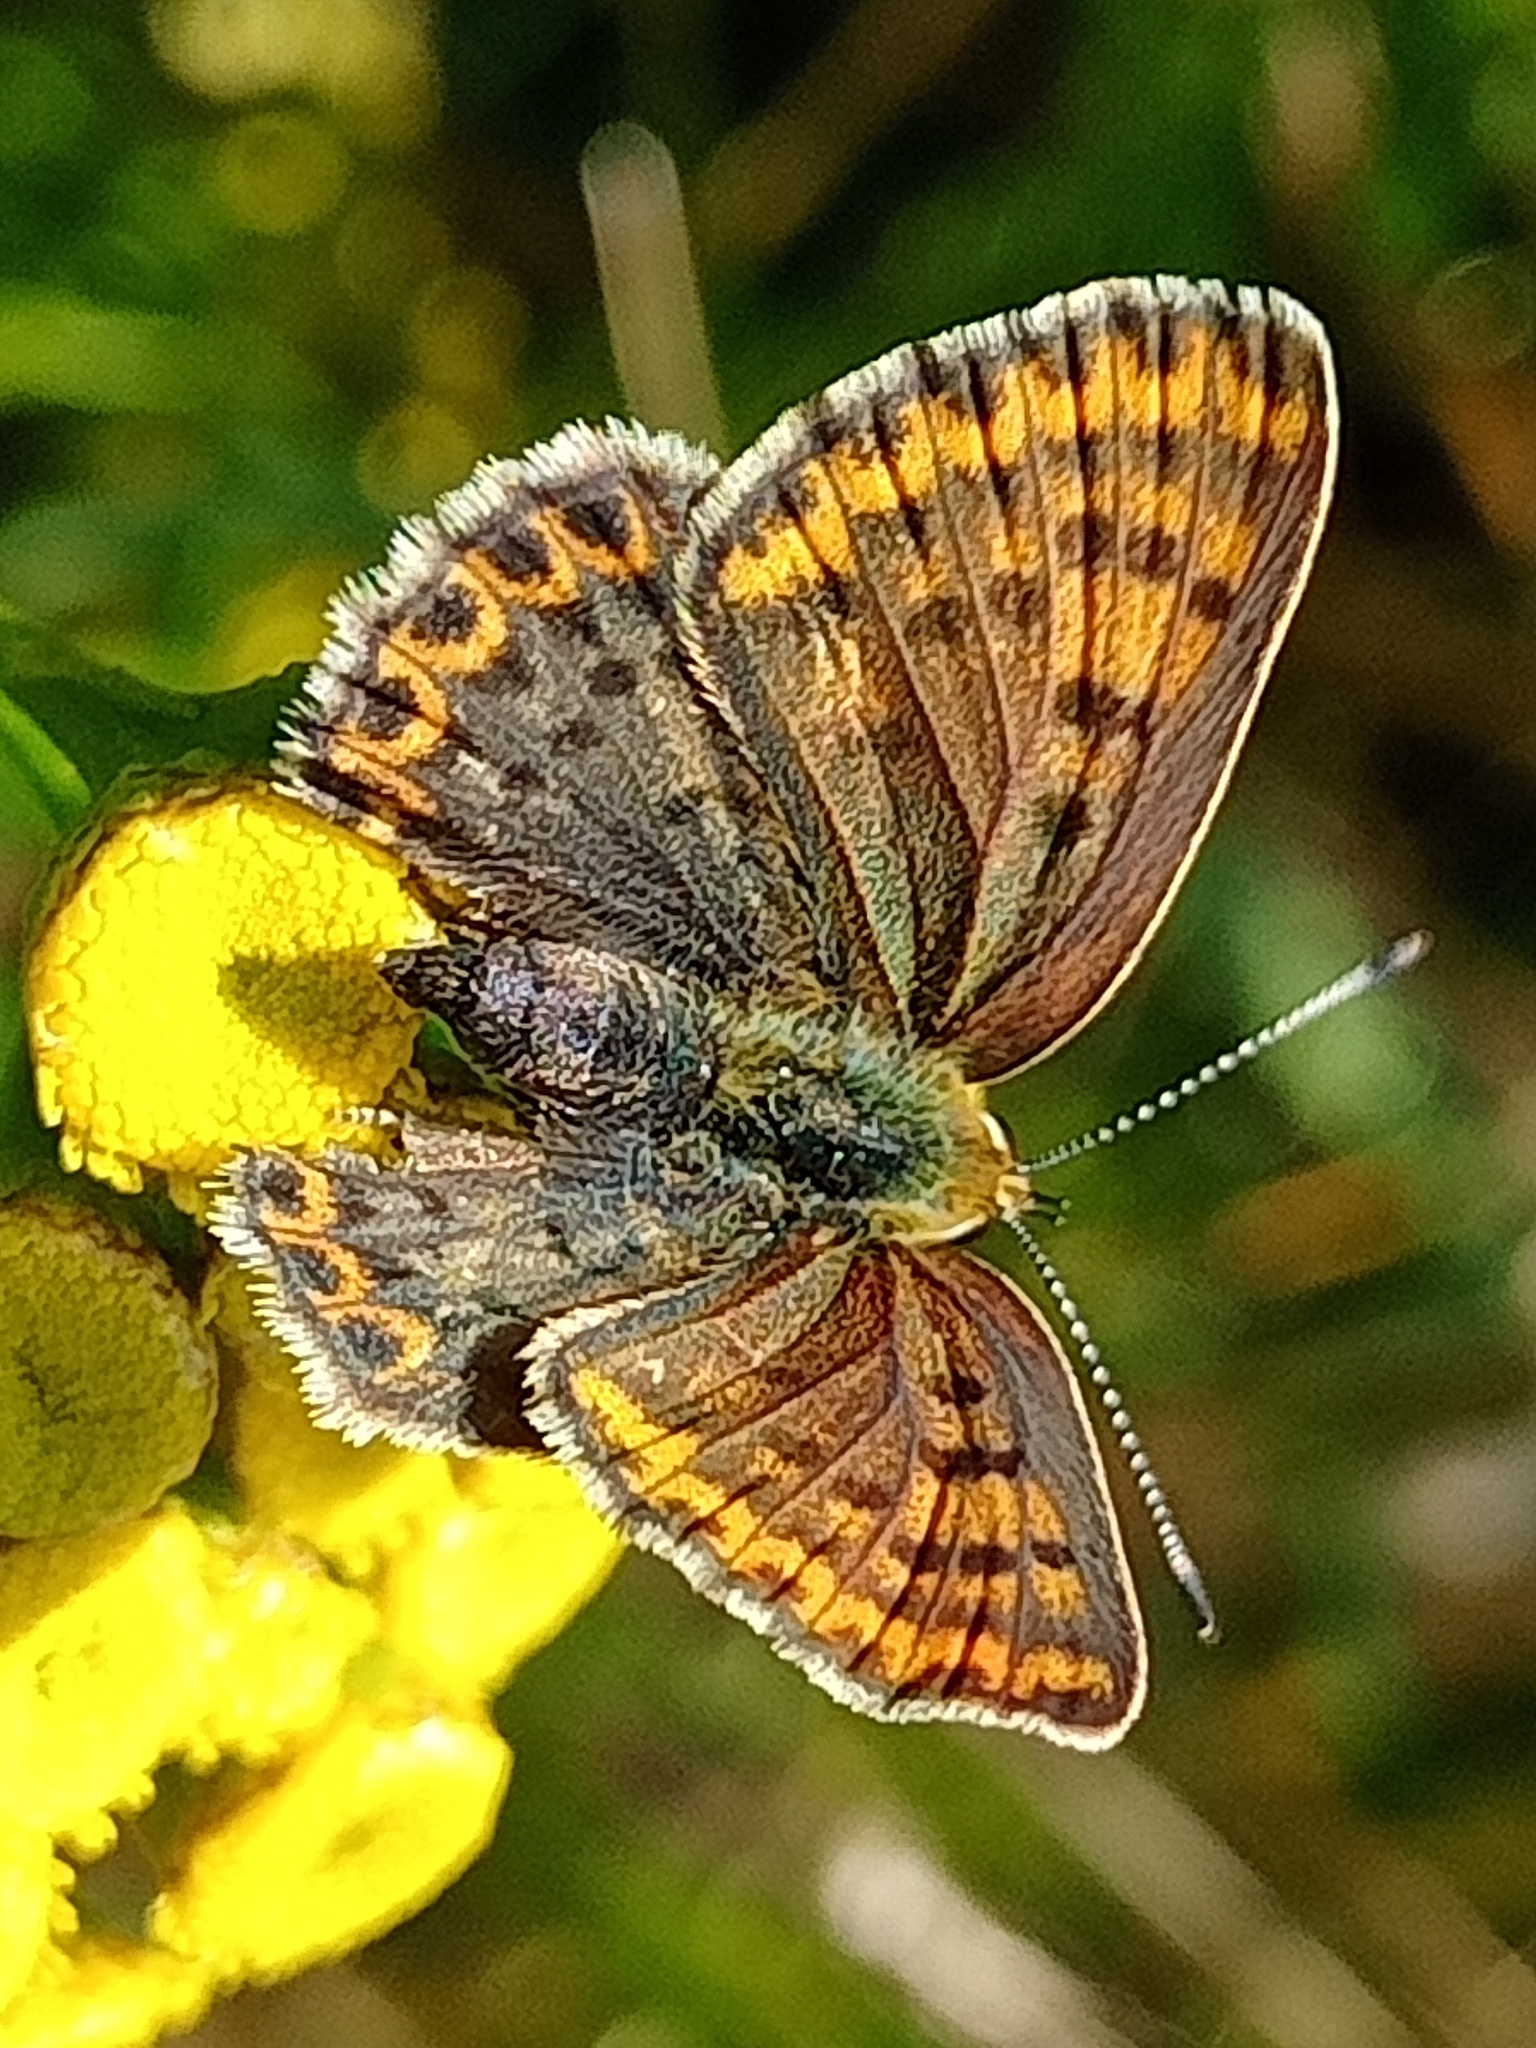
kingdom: Animalia
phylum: Arthropoda
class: Insecta
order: Lepidoptera
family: Lycaenidae
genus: Loweia
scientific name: Loweia tityrus
